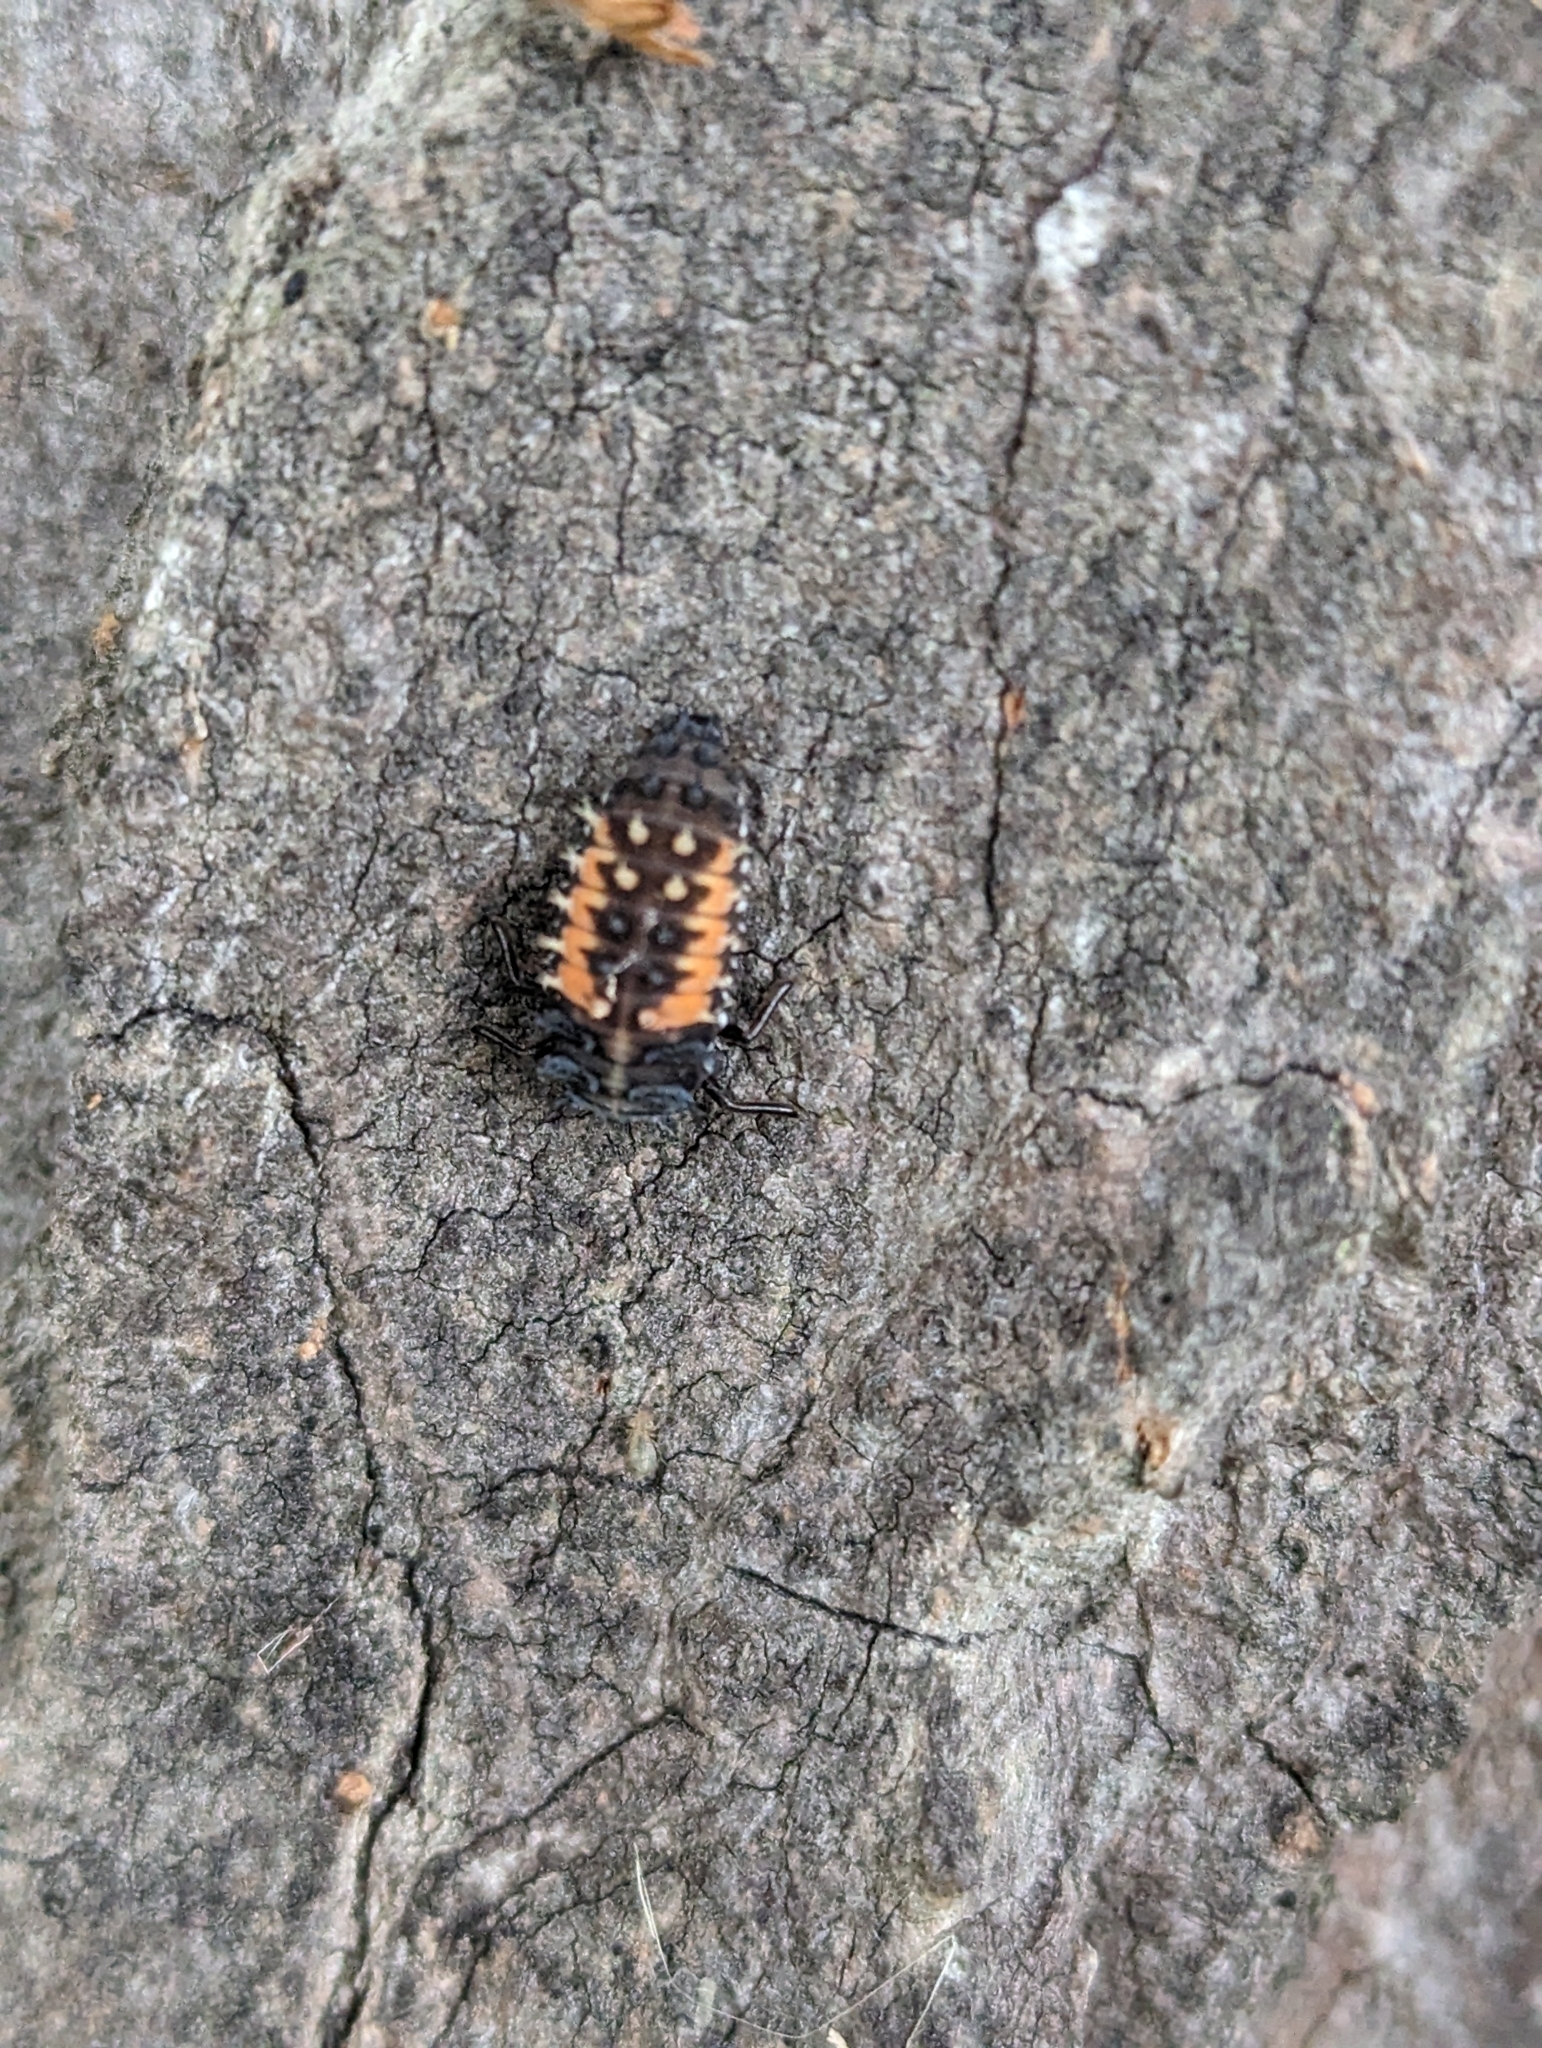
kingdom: Animalia
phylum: Arthropoda
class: Insecta
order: Coleoptera
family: Coccinellidae
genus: Harmonia
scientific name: Harmonia axyridis
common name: Harlequin ladybird
